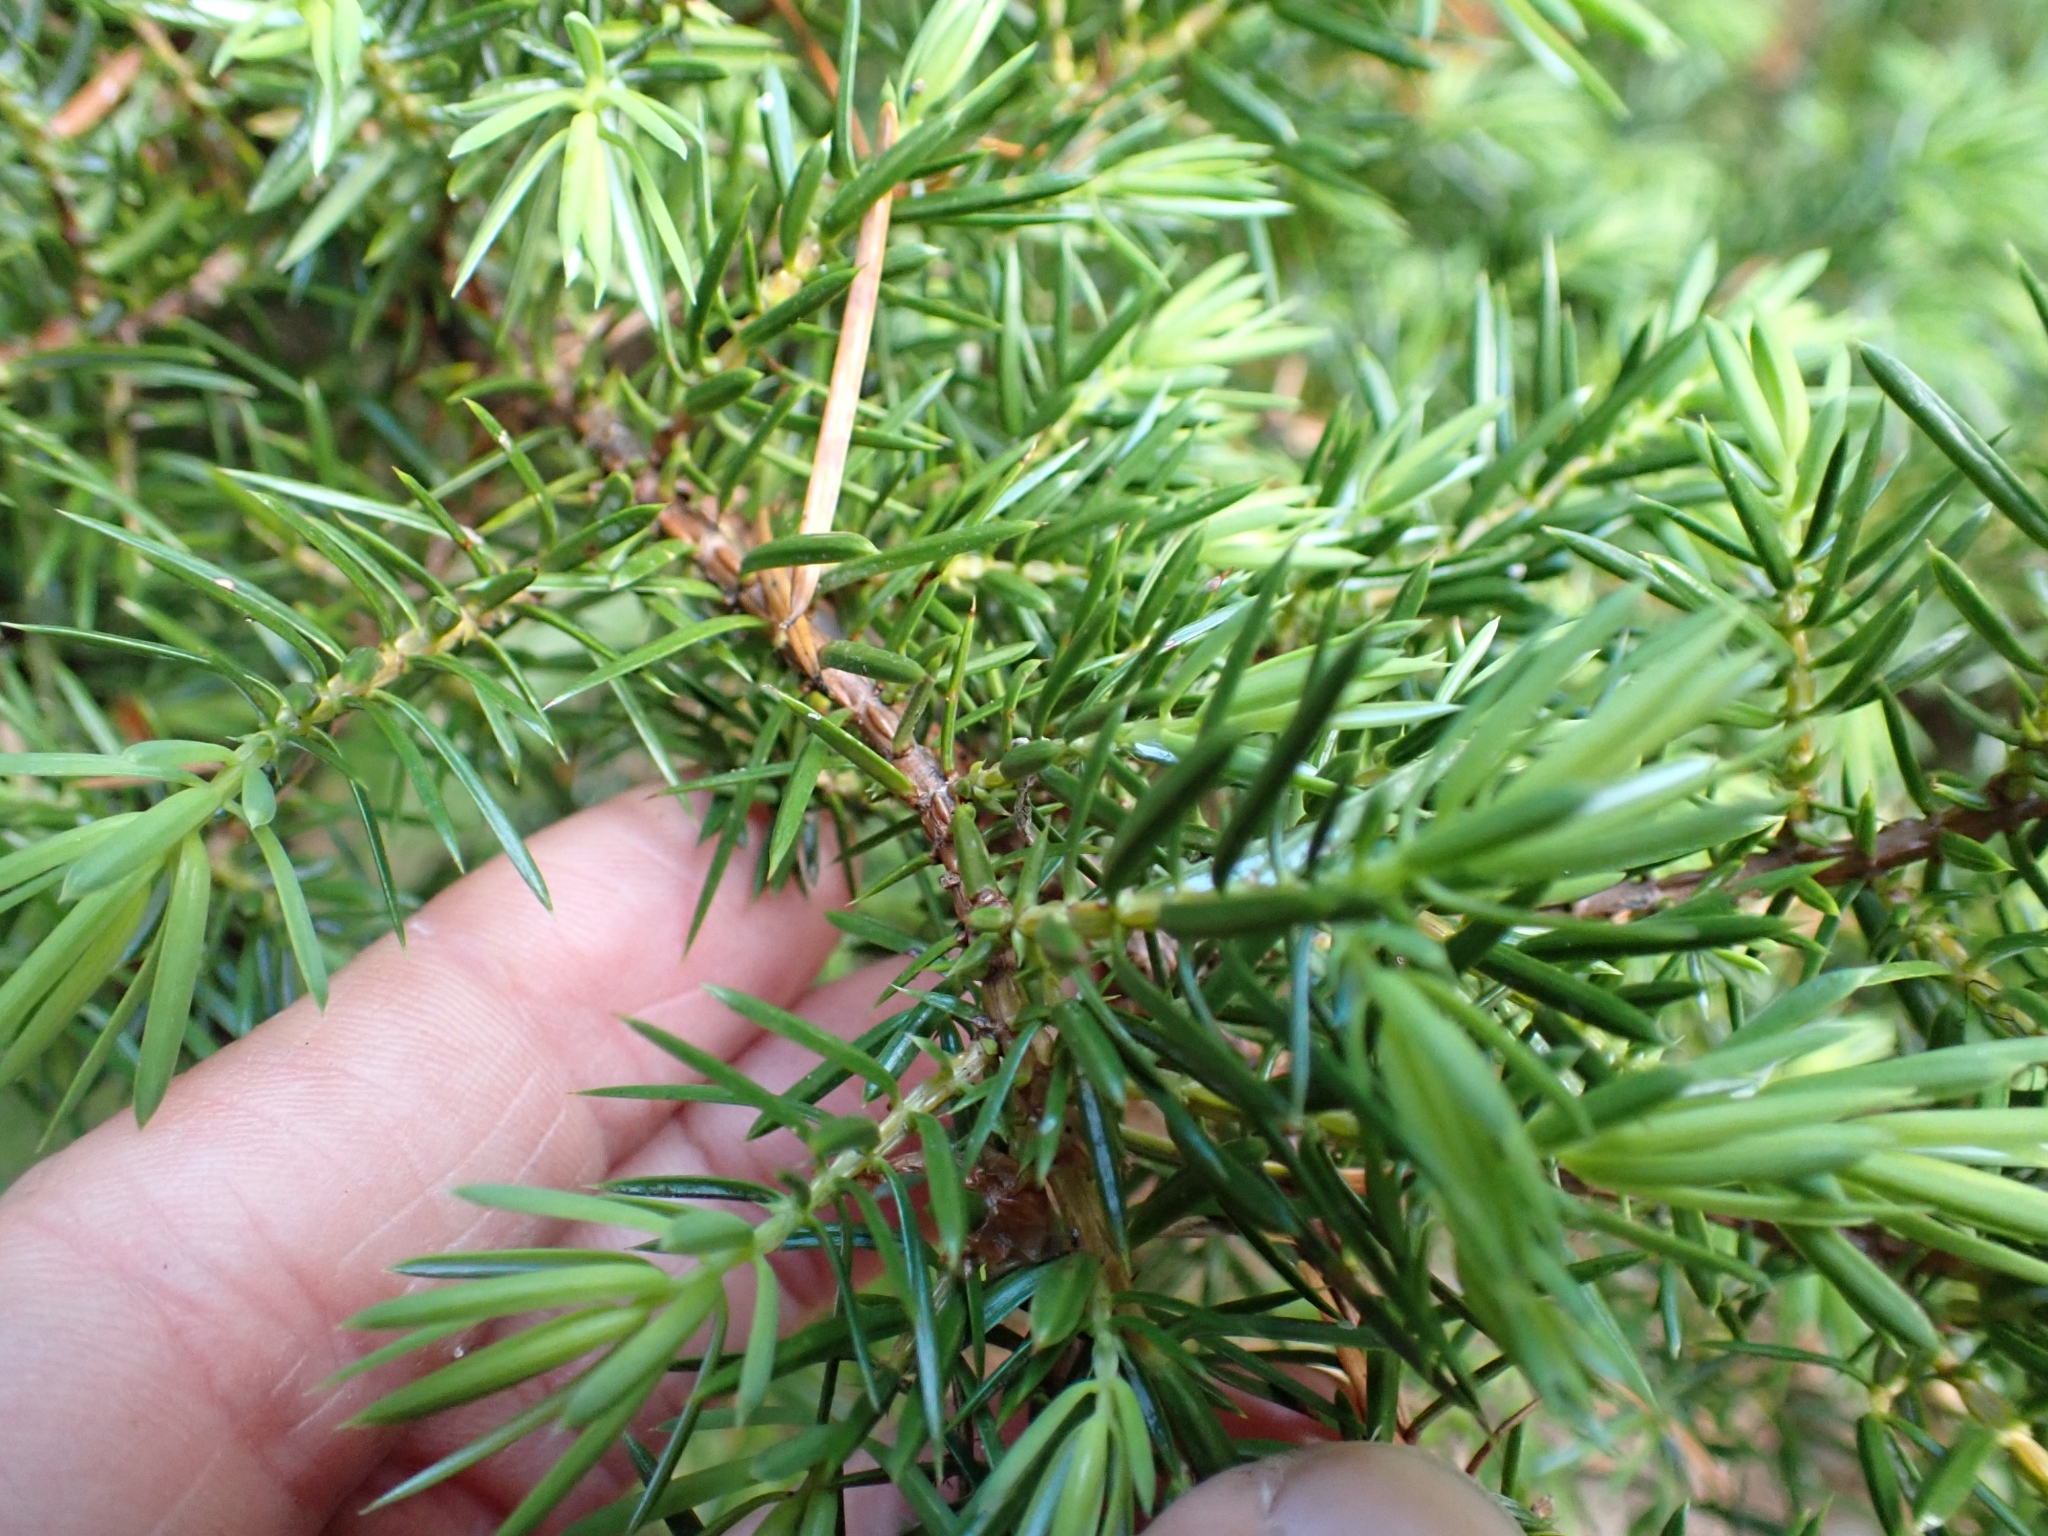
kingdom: Plantae
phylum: Tracheophyta
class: Pinopsida
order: Pinales
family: Cupressaceae
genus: Juniperus
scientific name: Juniperus communis
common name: Common juniper
